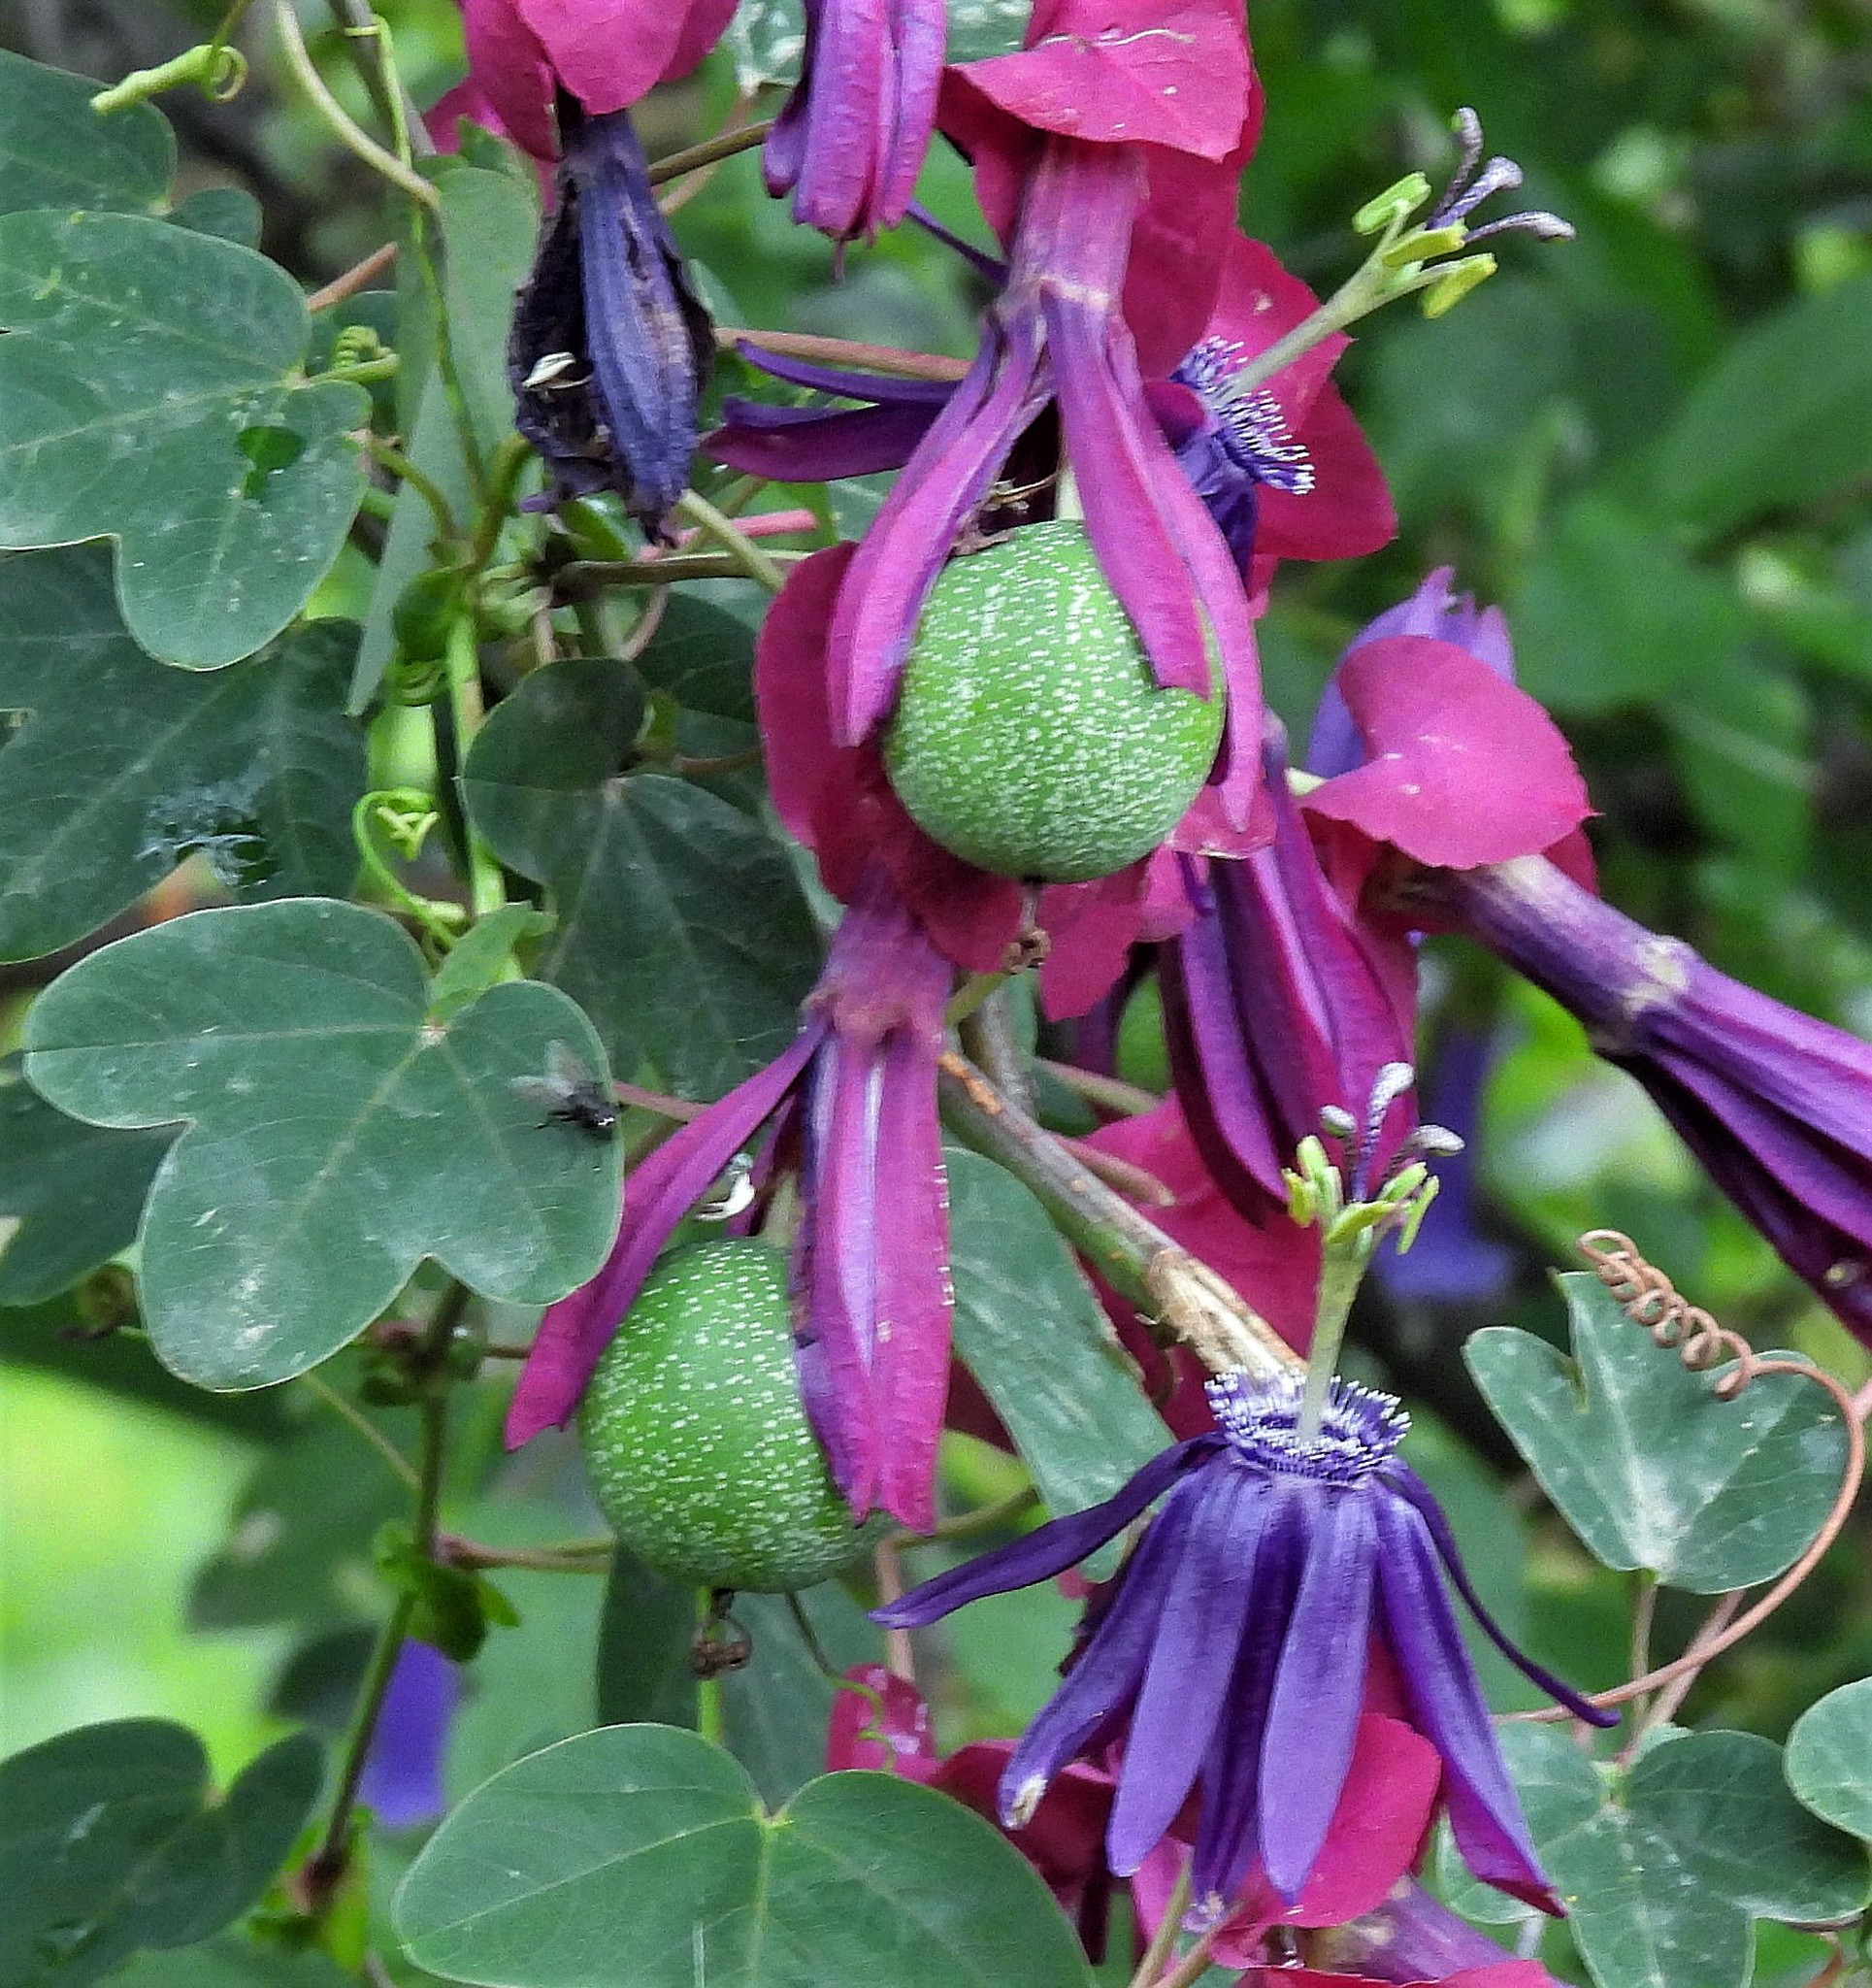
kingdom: Plantae
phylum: Tracheophyta
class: Magnoliopsida
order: Malpighiales
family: Passifloraceae
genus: Passiflora
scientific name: Passiflora umbilicata
